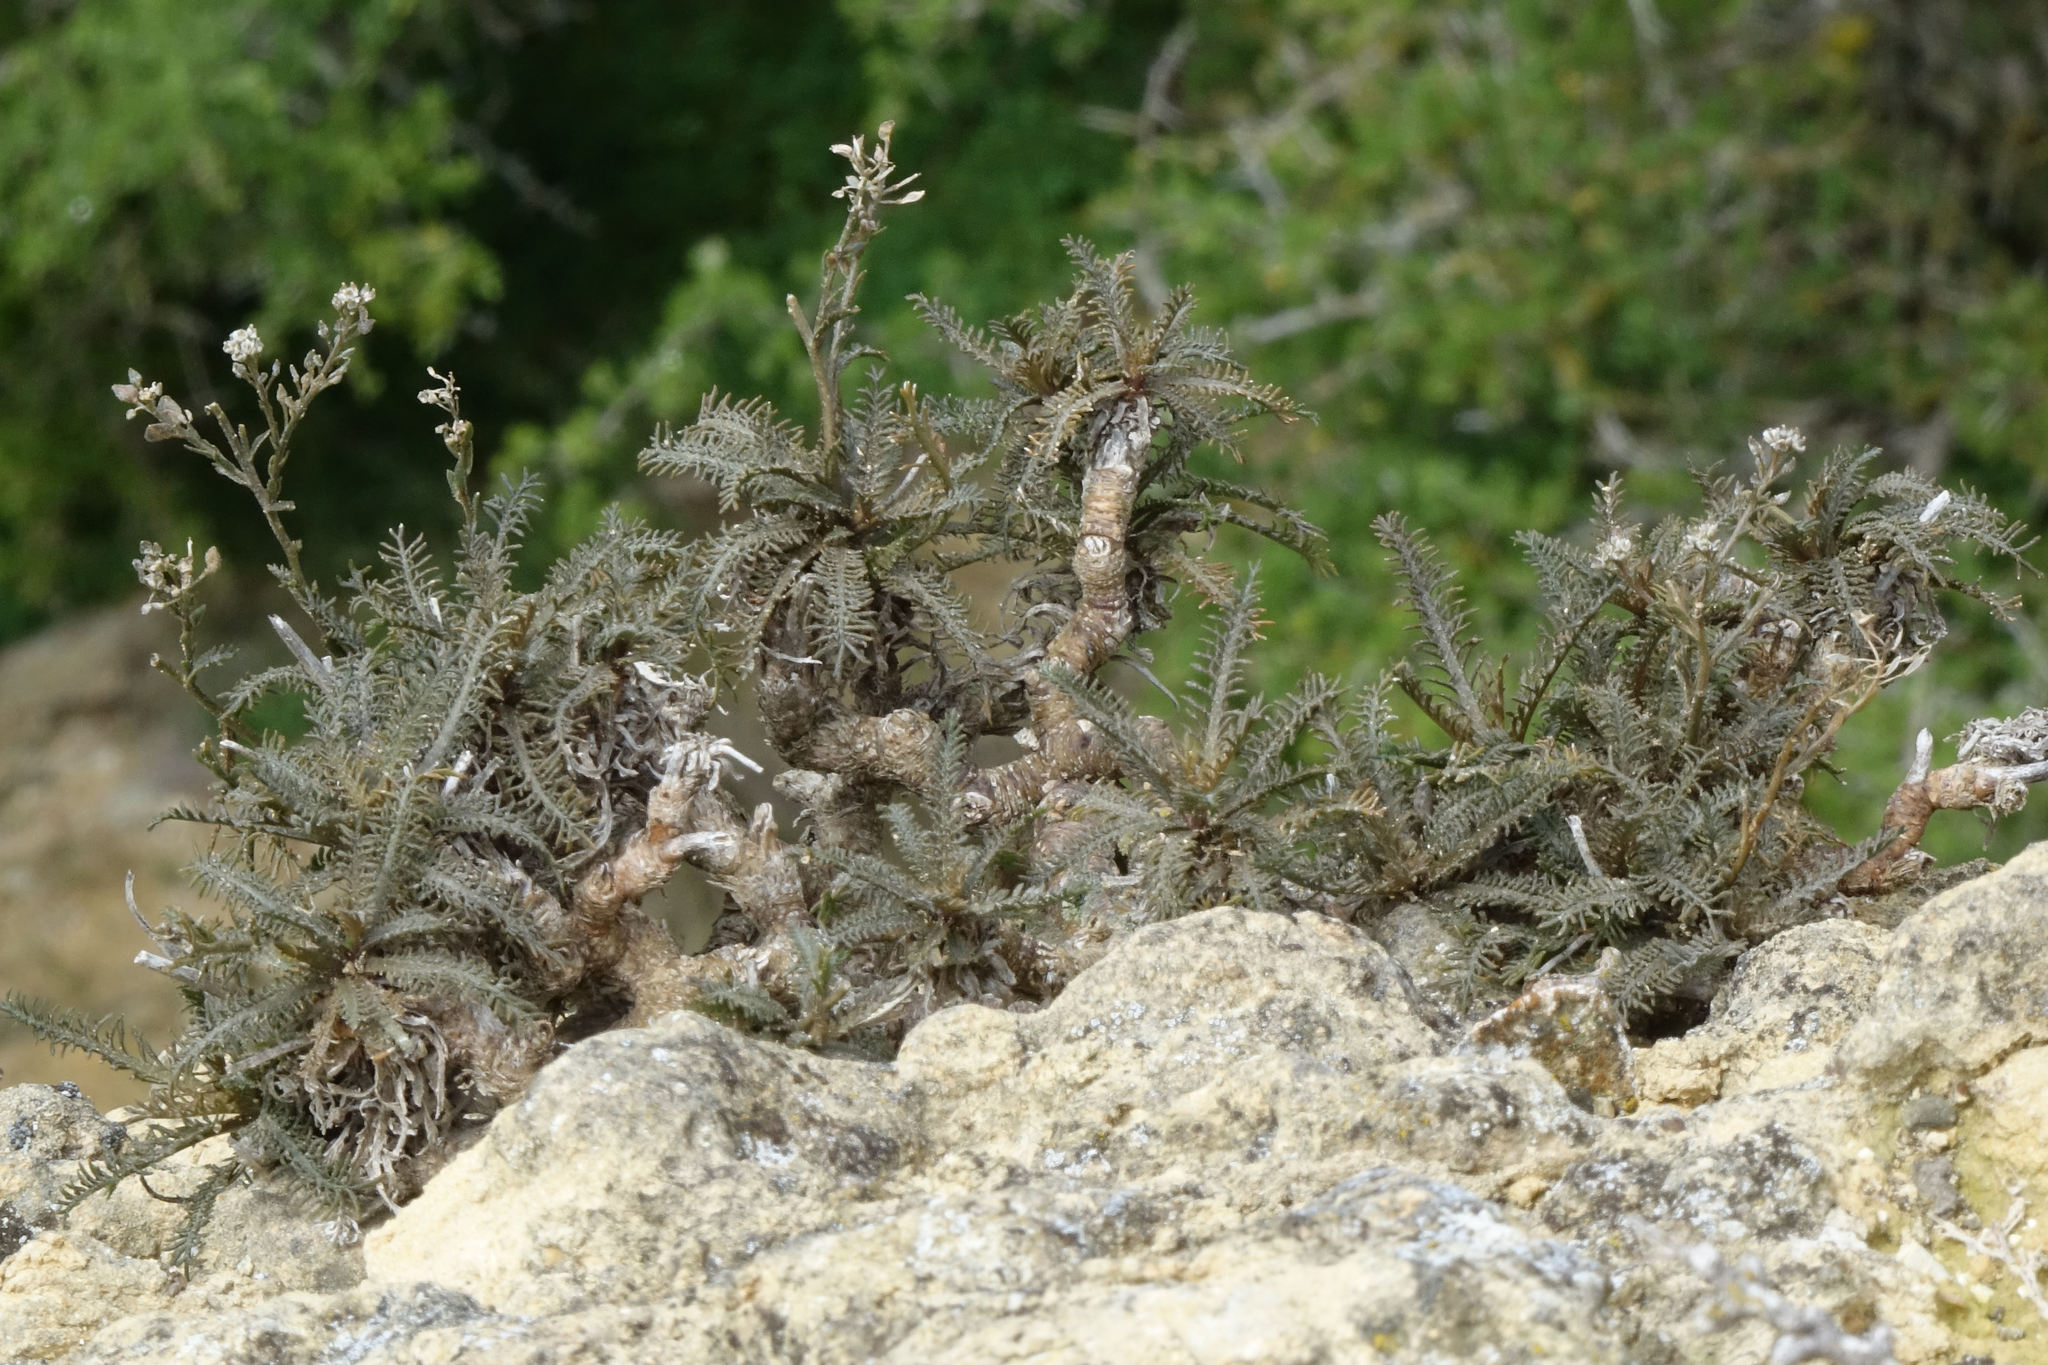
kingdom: Plantae
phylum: Tracheophyta
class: Magnoliopsida
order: Brassicales
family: Brassicaceae
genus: Lepidium
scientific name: Lepidium sisymbrioides
